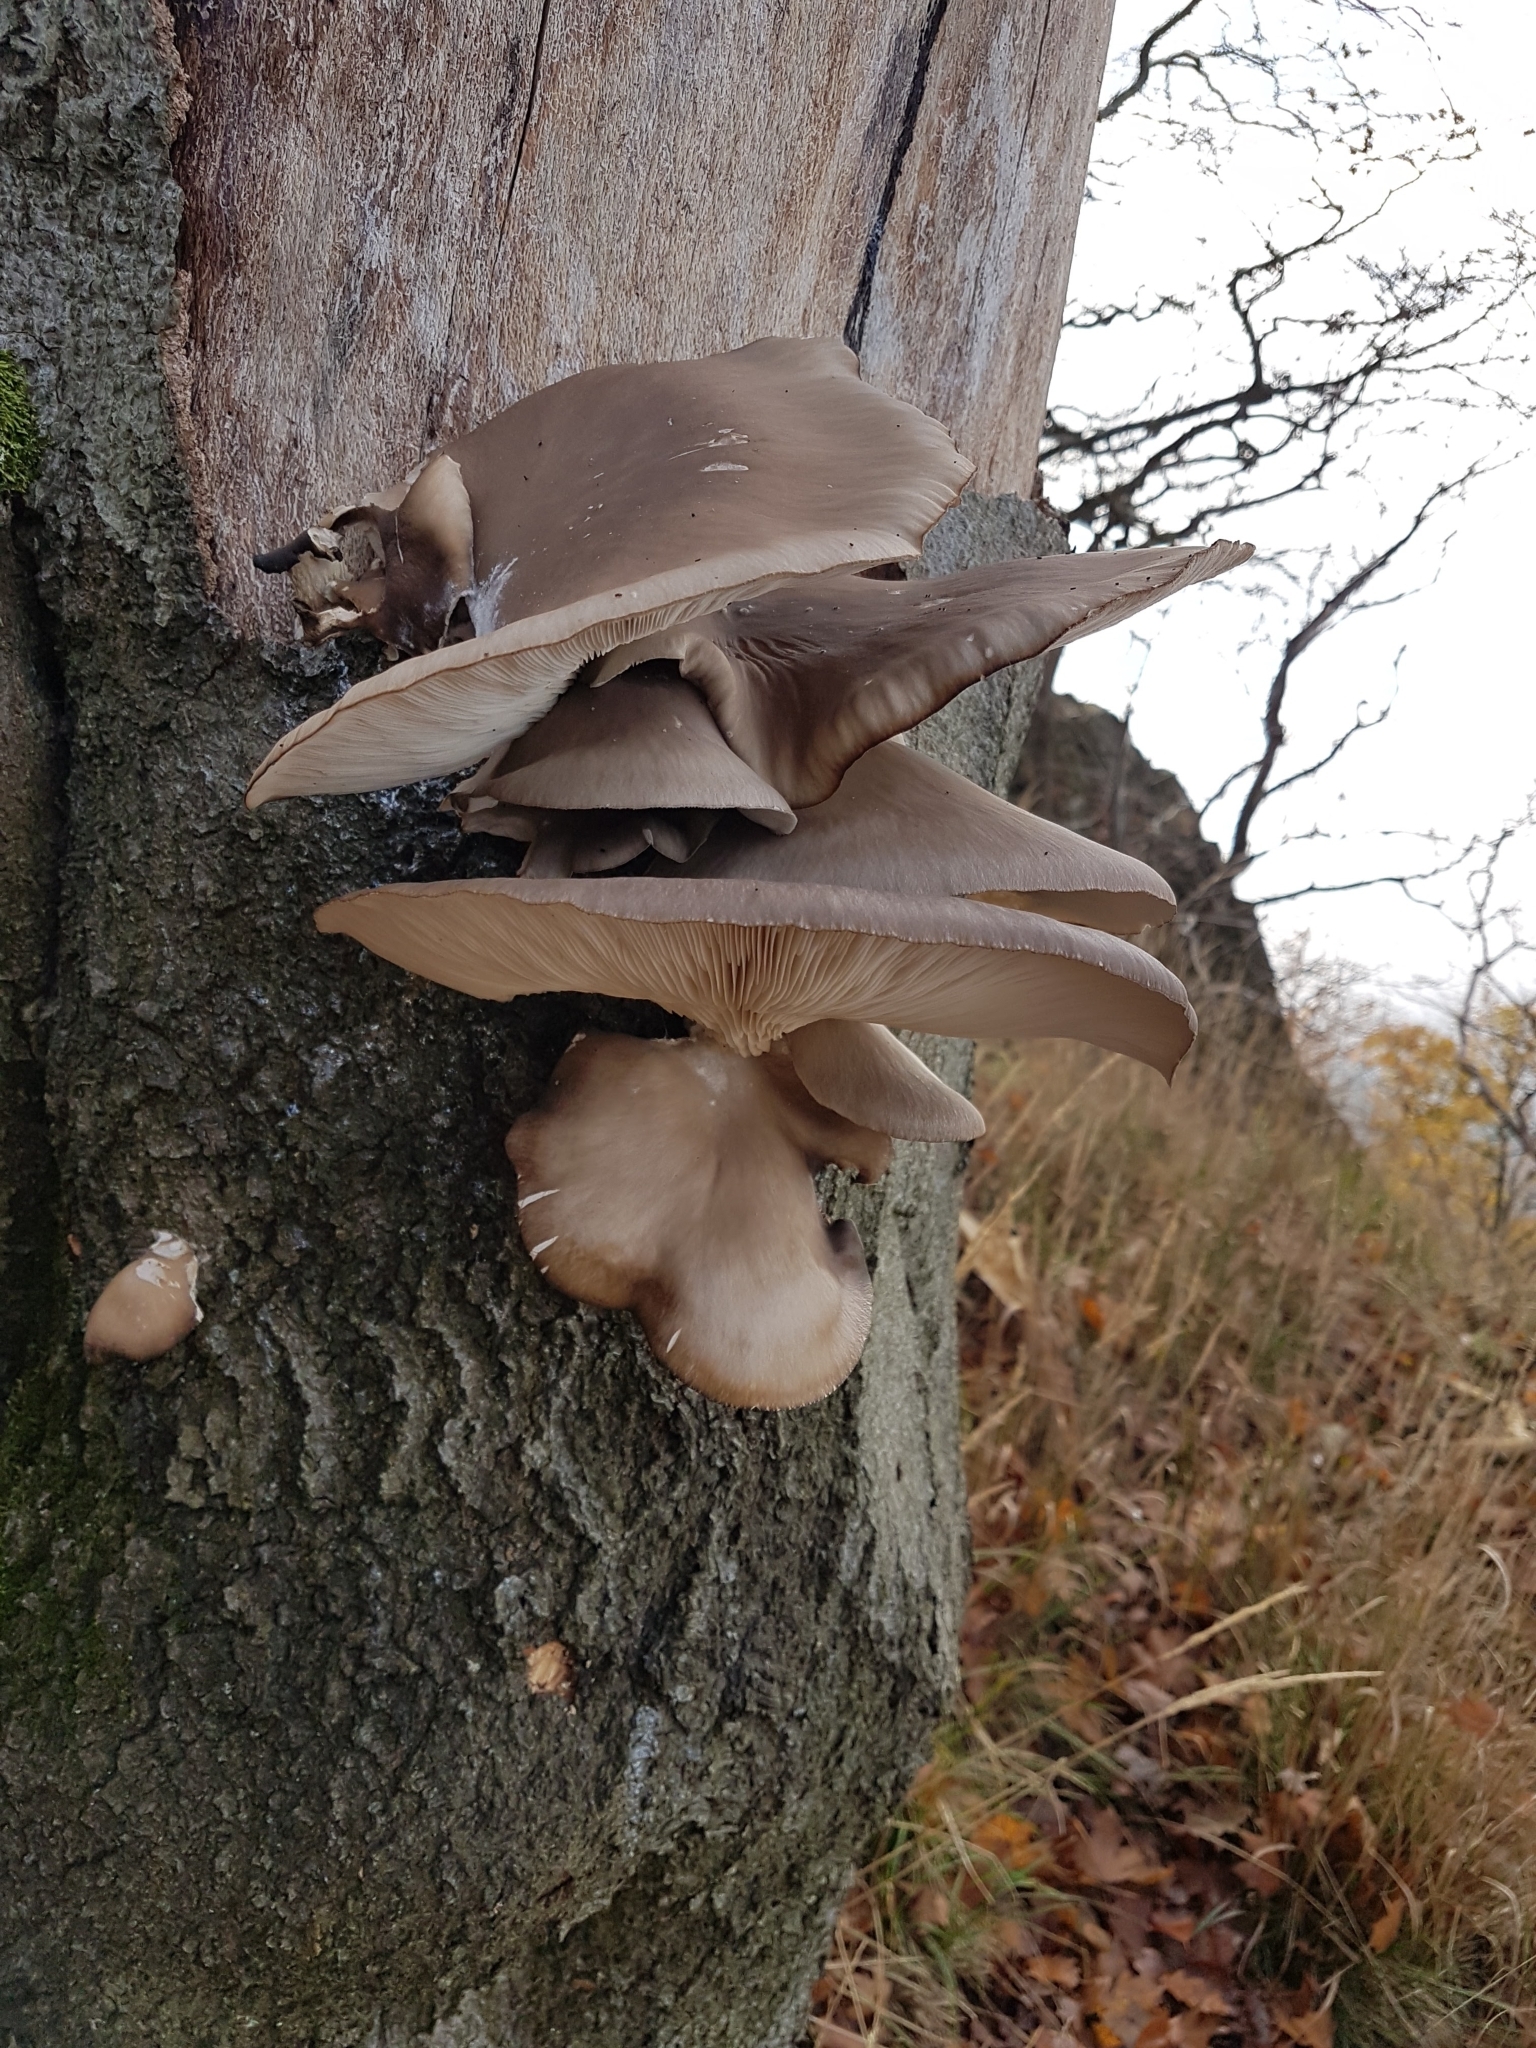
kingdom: Fungi
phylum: Basidiomycota
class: Agaricomycetes
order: Agaricales
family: Pleurotaceae
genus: Pleurotus
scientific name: Pleurotus ostreatus
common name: Oyster mushroom
